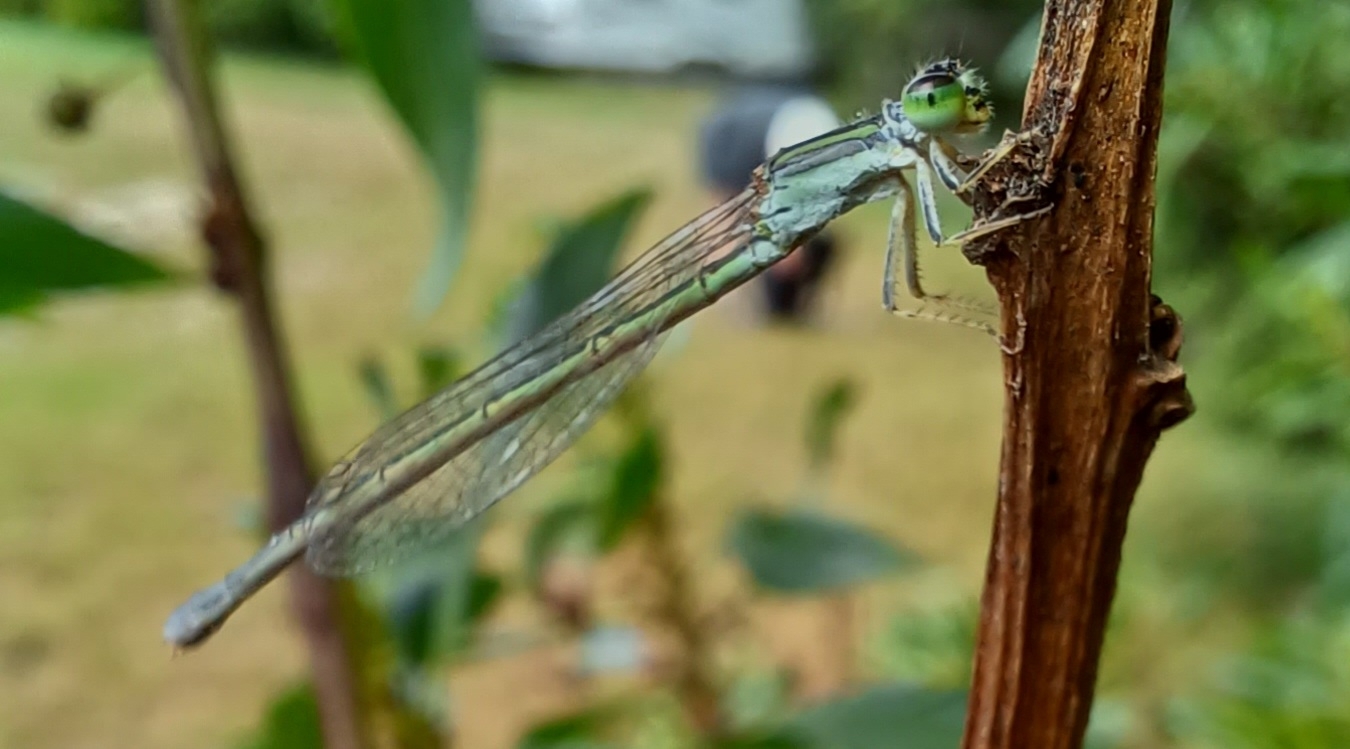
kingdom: Animalia
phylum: Arthropoda
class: Insecta
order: Odonata
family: Coenagrionidae
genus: Ischnura
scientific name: Ischnura aurora
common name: Gossamer damselfly
